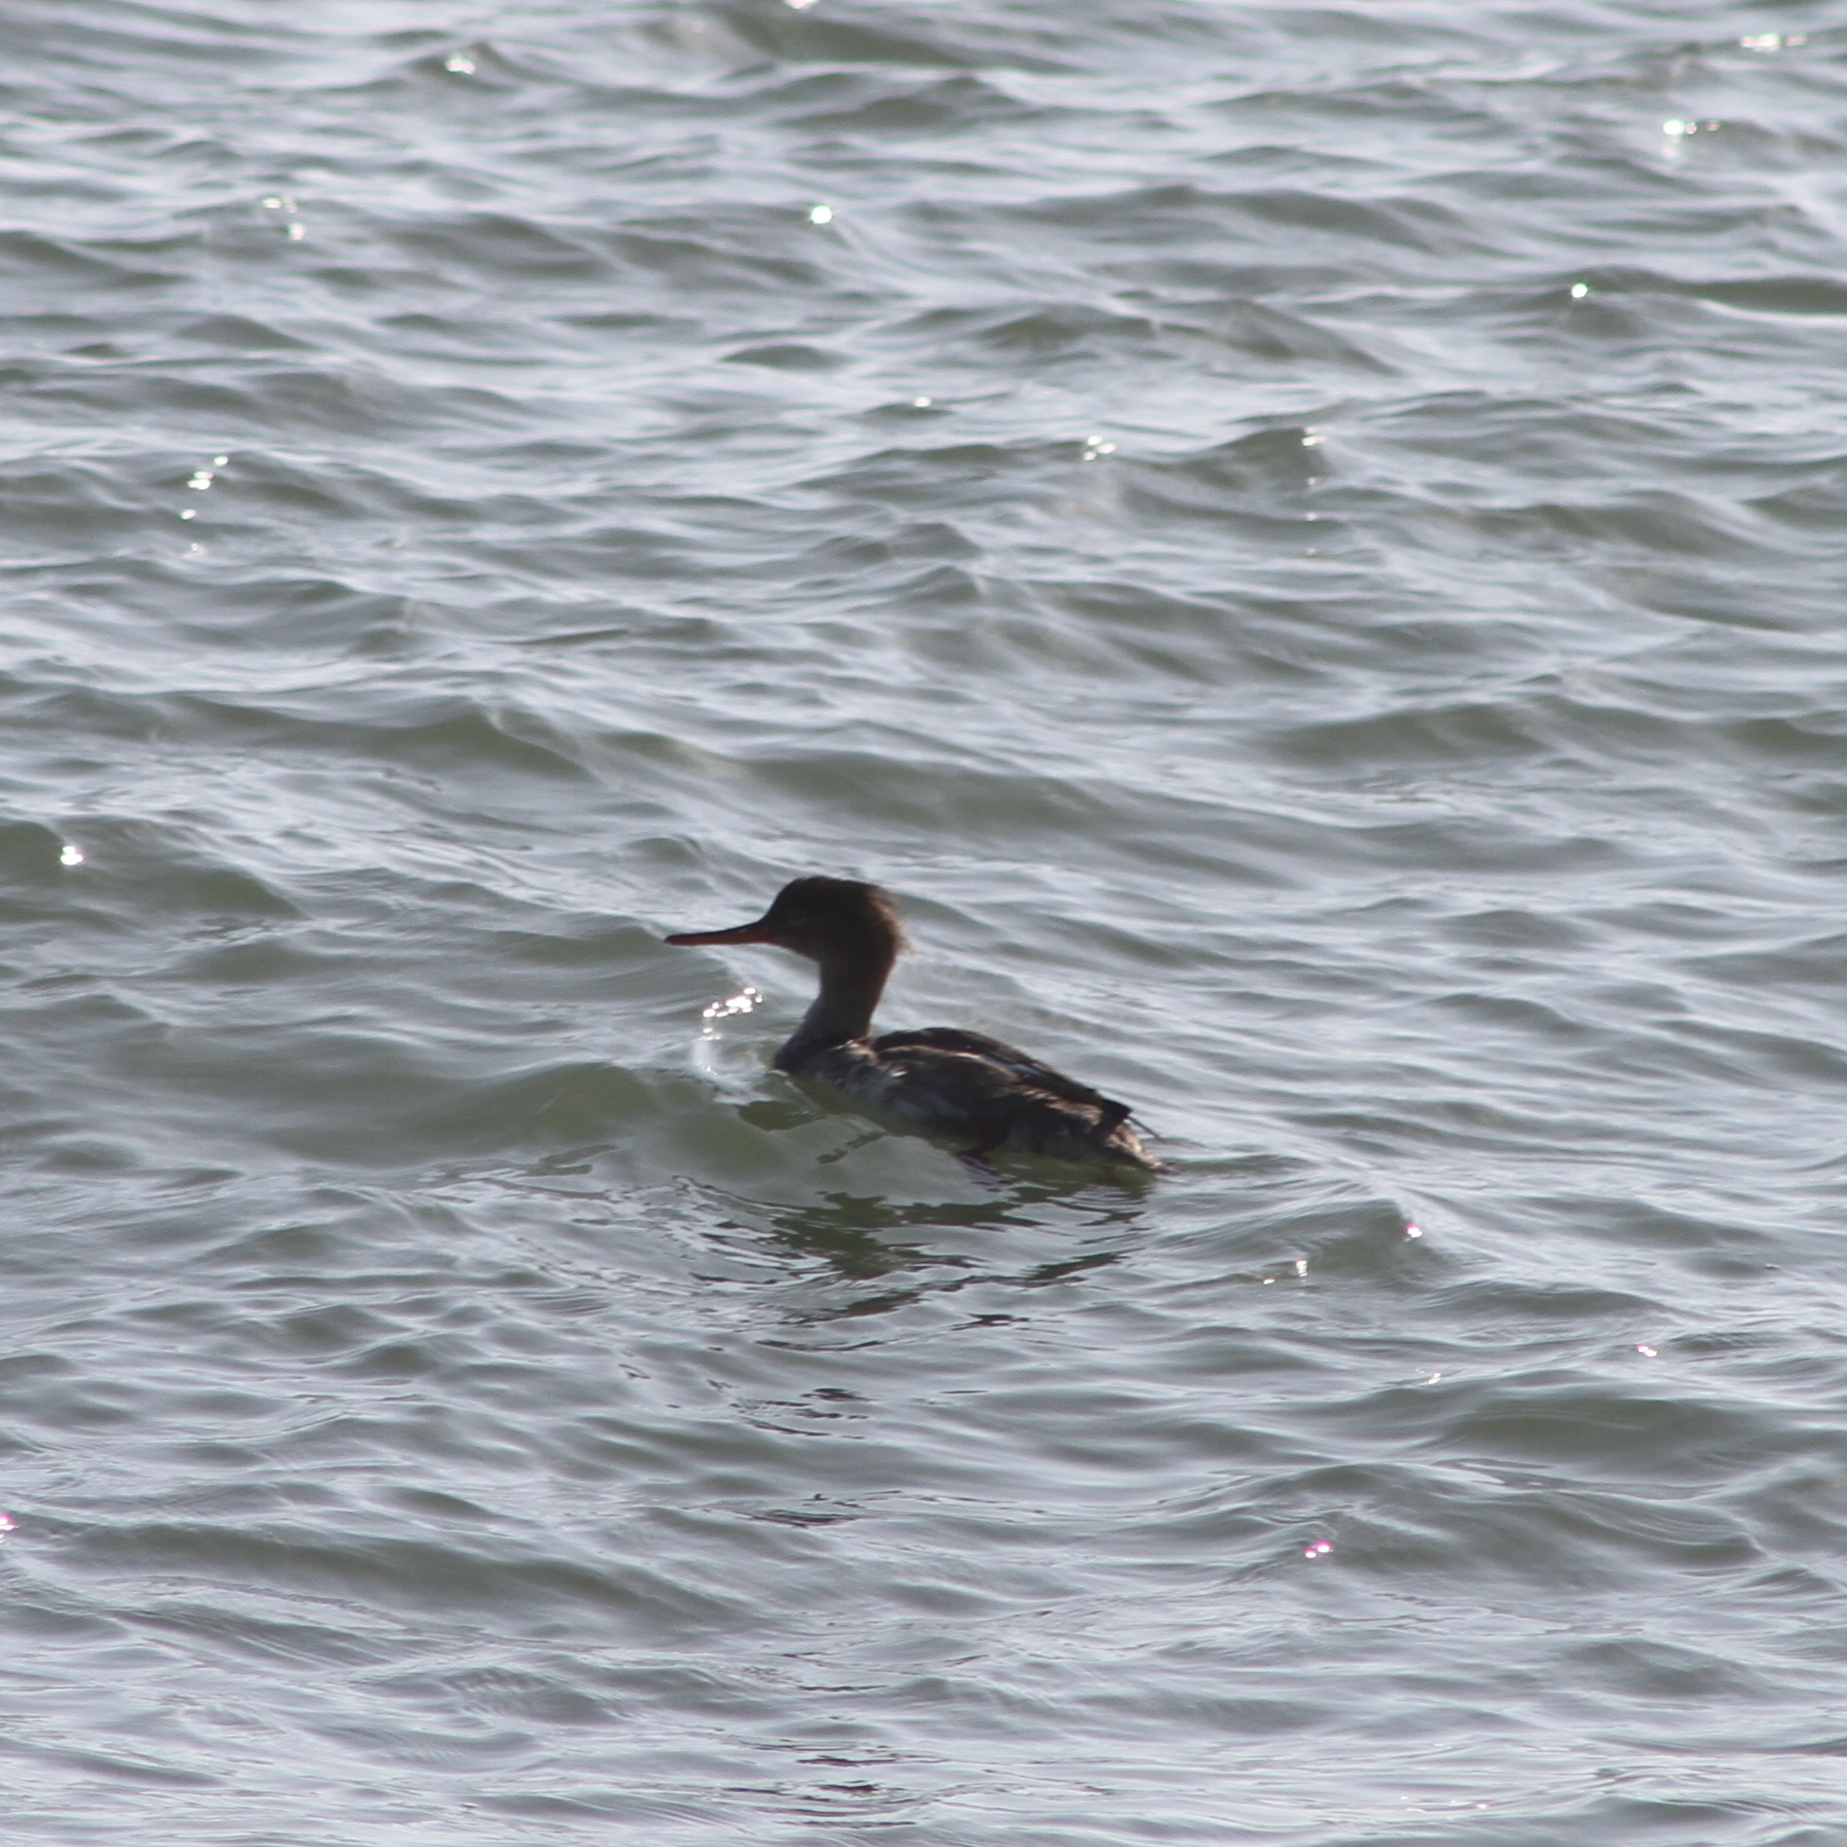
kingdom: Animalia
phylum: Chordata
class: Aves
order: Anseriformes
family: Anatidae
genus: Mergus
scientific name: Mergus serrator
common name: Red-breasted merganser
